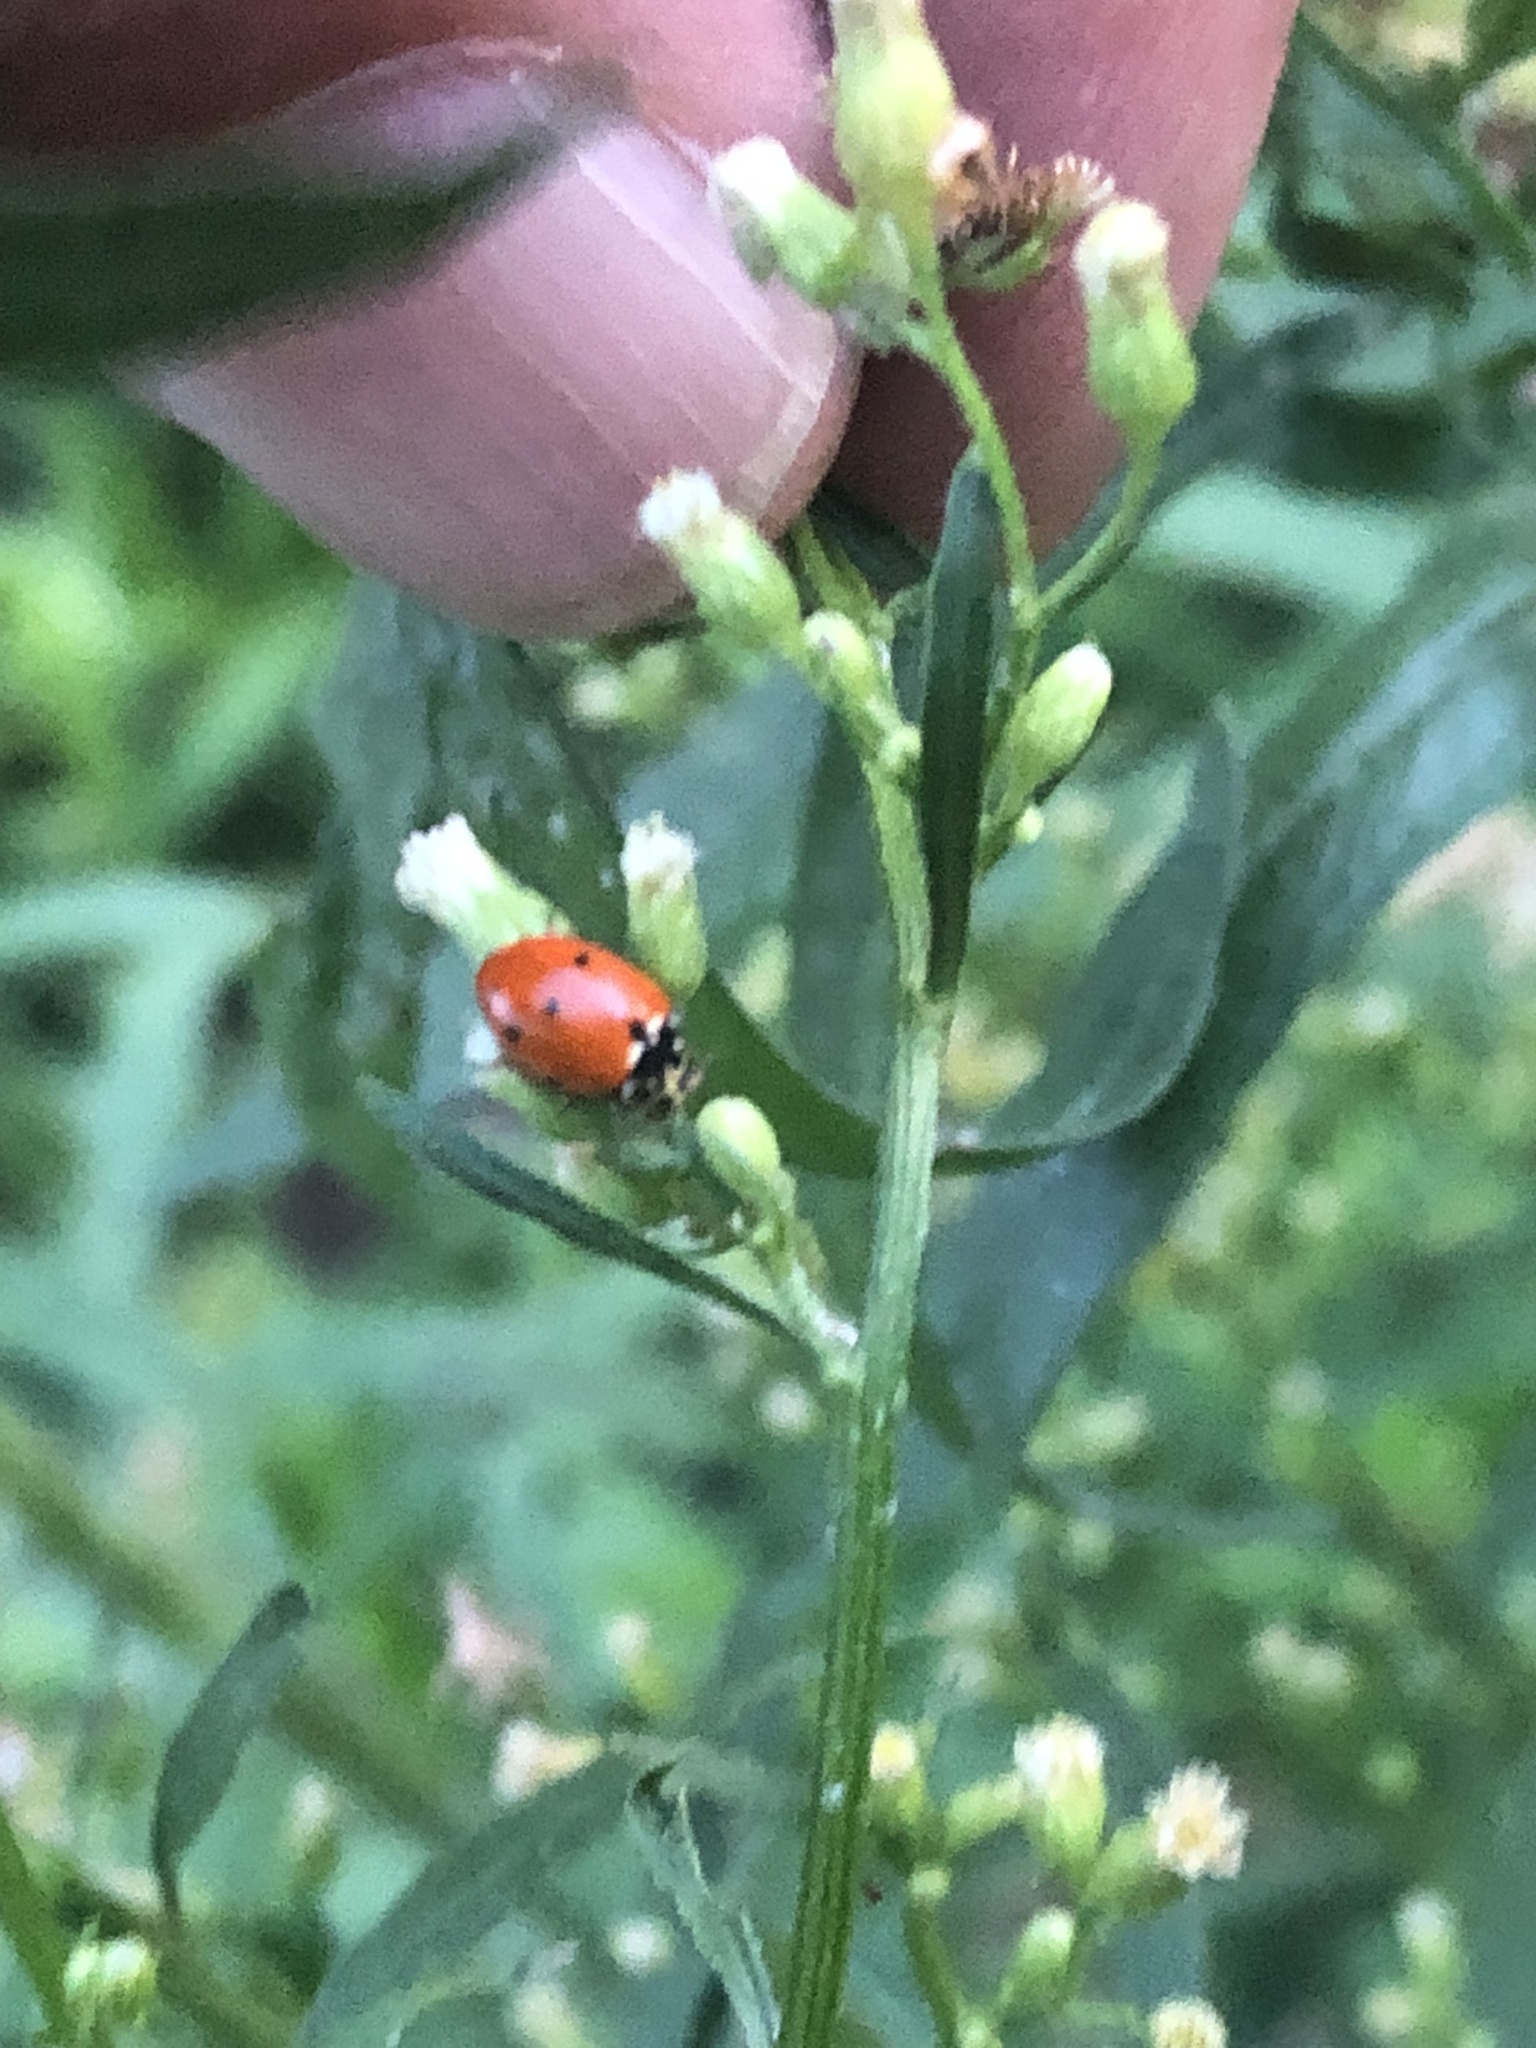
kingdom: Animalia
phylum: Arthropoda
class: Insecta
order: Coleoptera
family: Coccinellidae
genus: Hippodamia
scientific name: Hippodamia variegata
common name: Ladybird beetle
